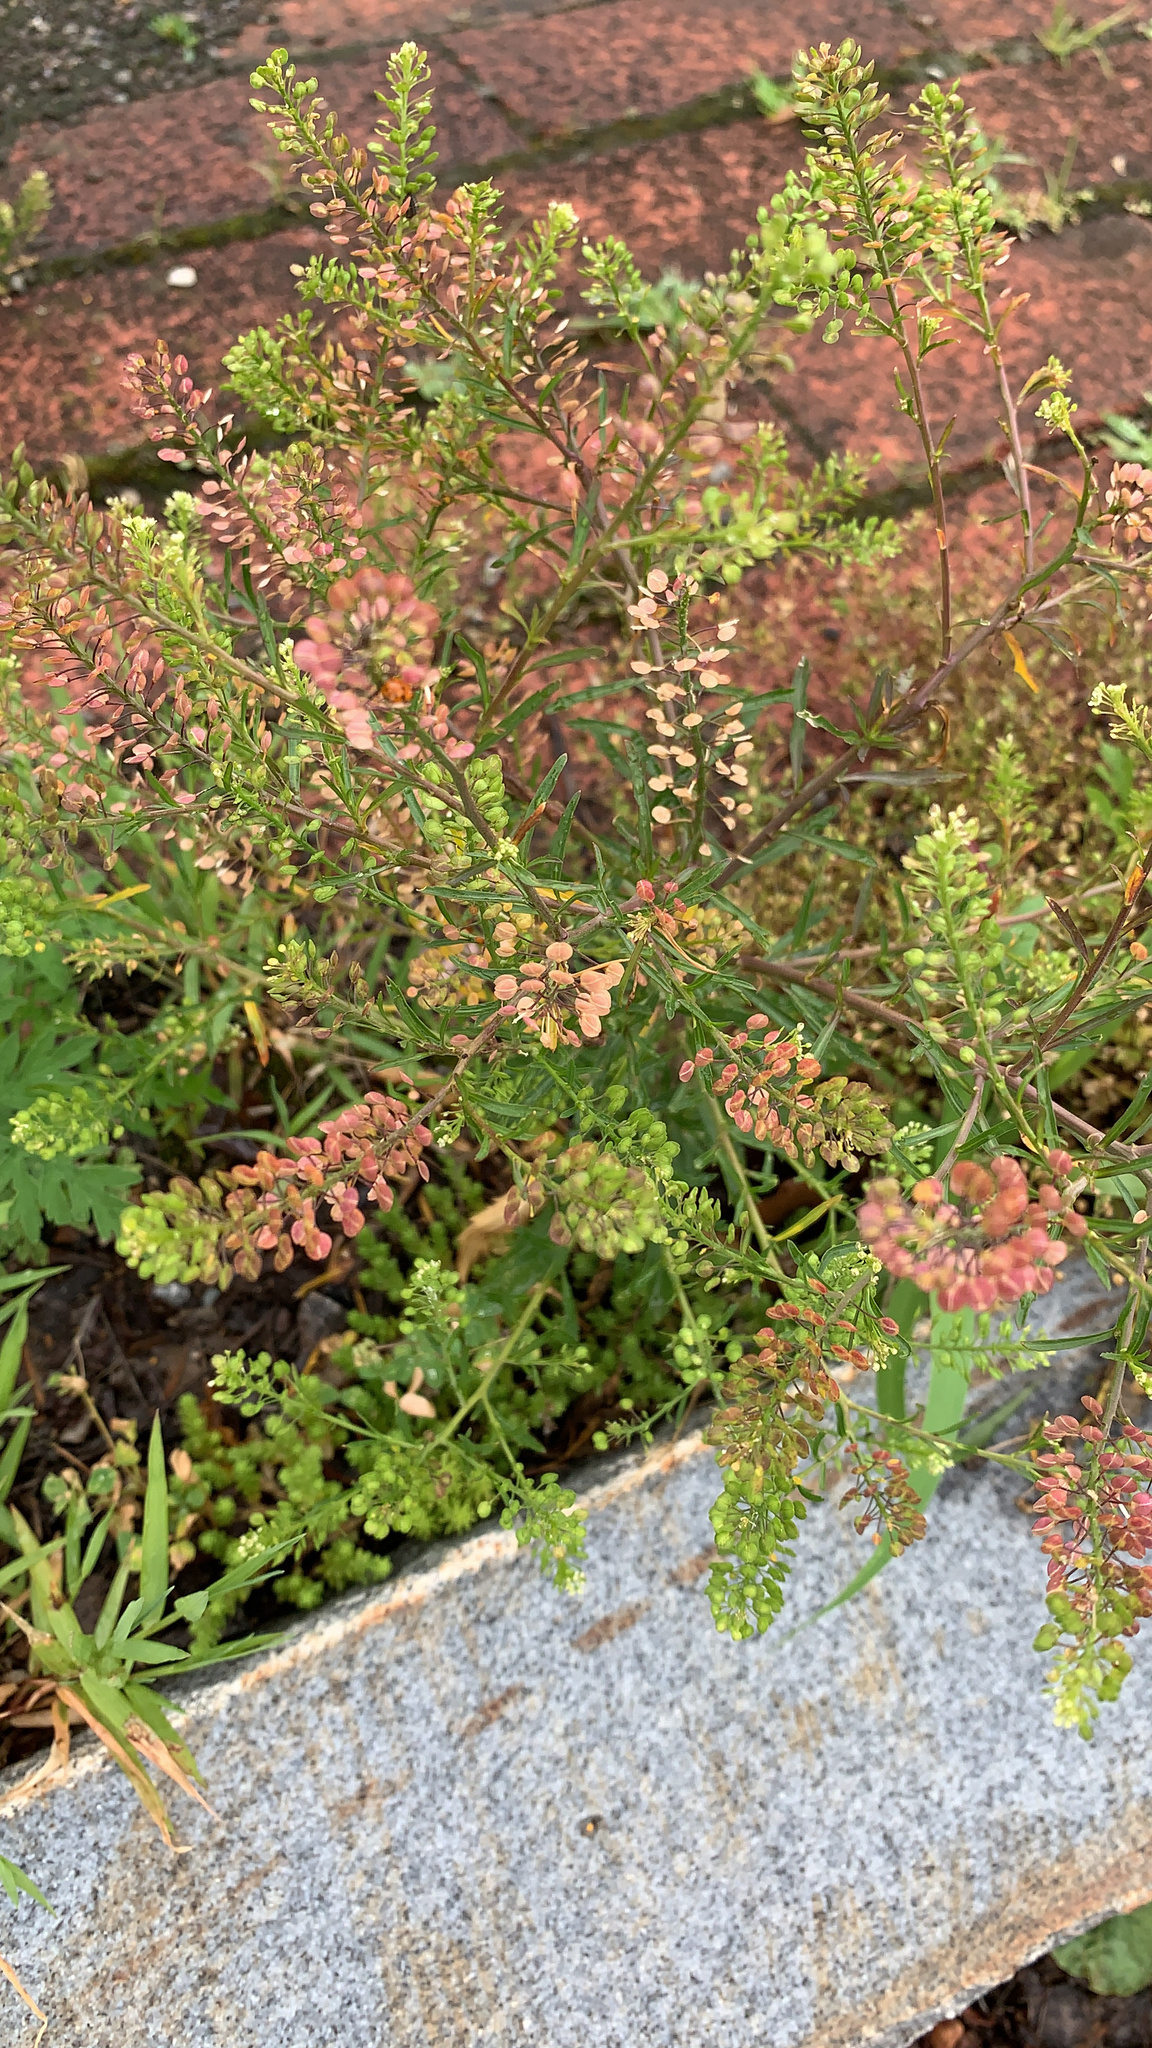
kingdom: Plantae
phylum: Tracheophyta
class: Magnoliopsida
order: Brassicales
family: Brassicaceae
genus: Lepidium
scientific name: Lepidium virginicum
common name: Least pepperwort
